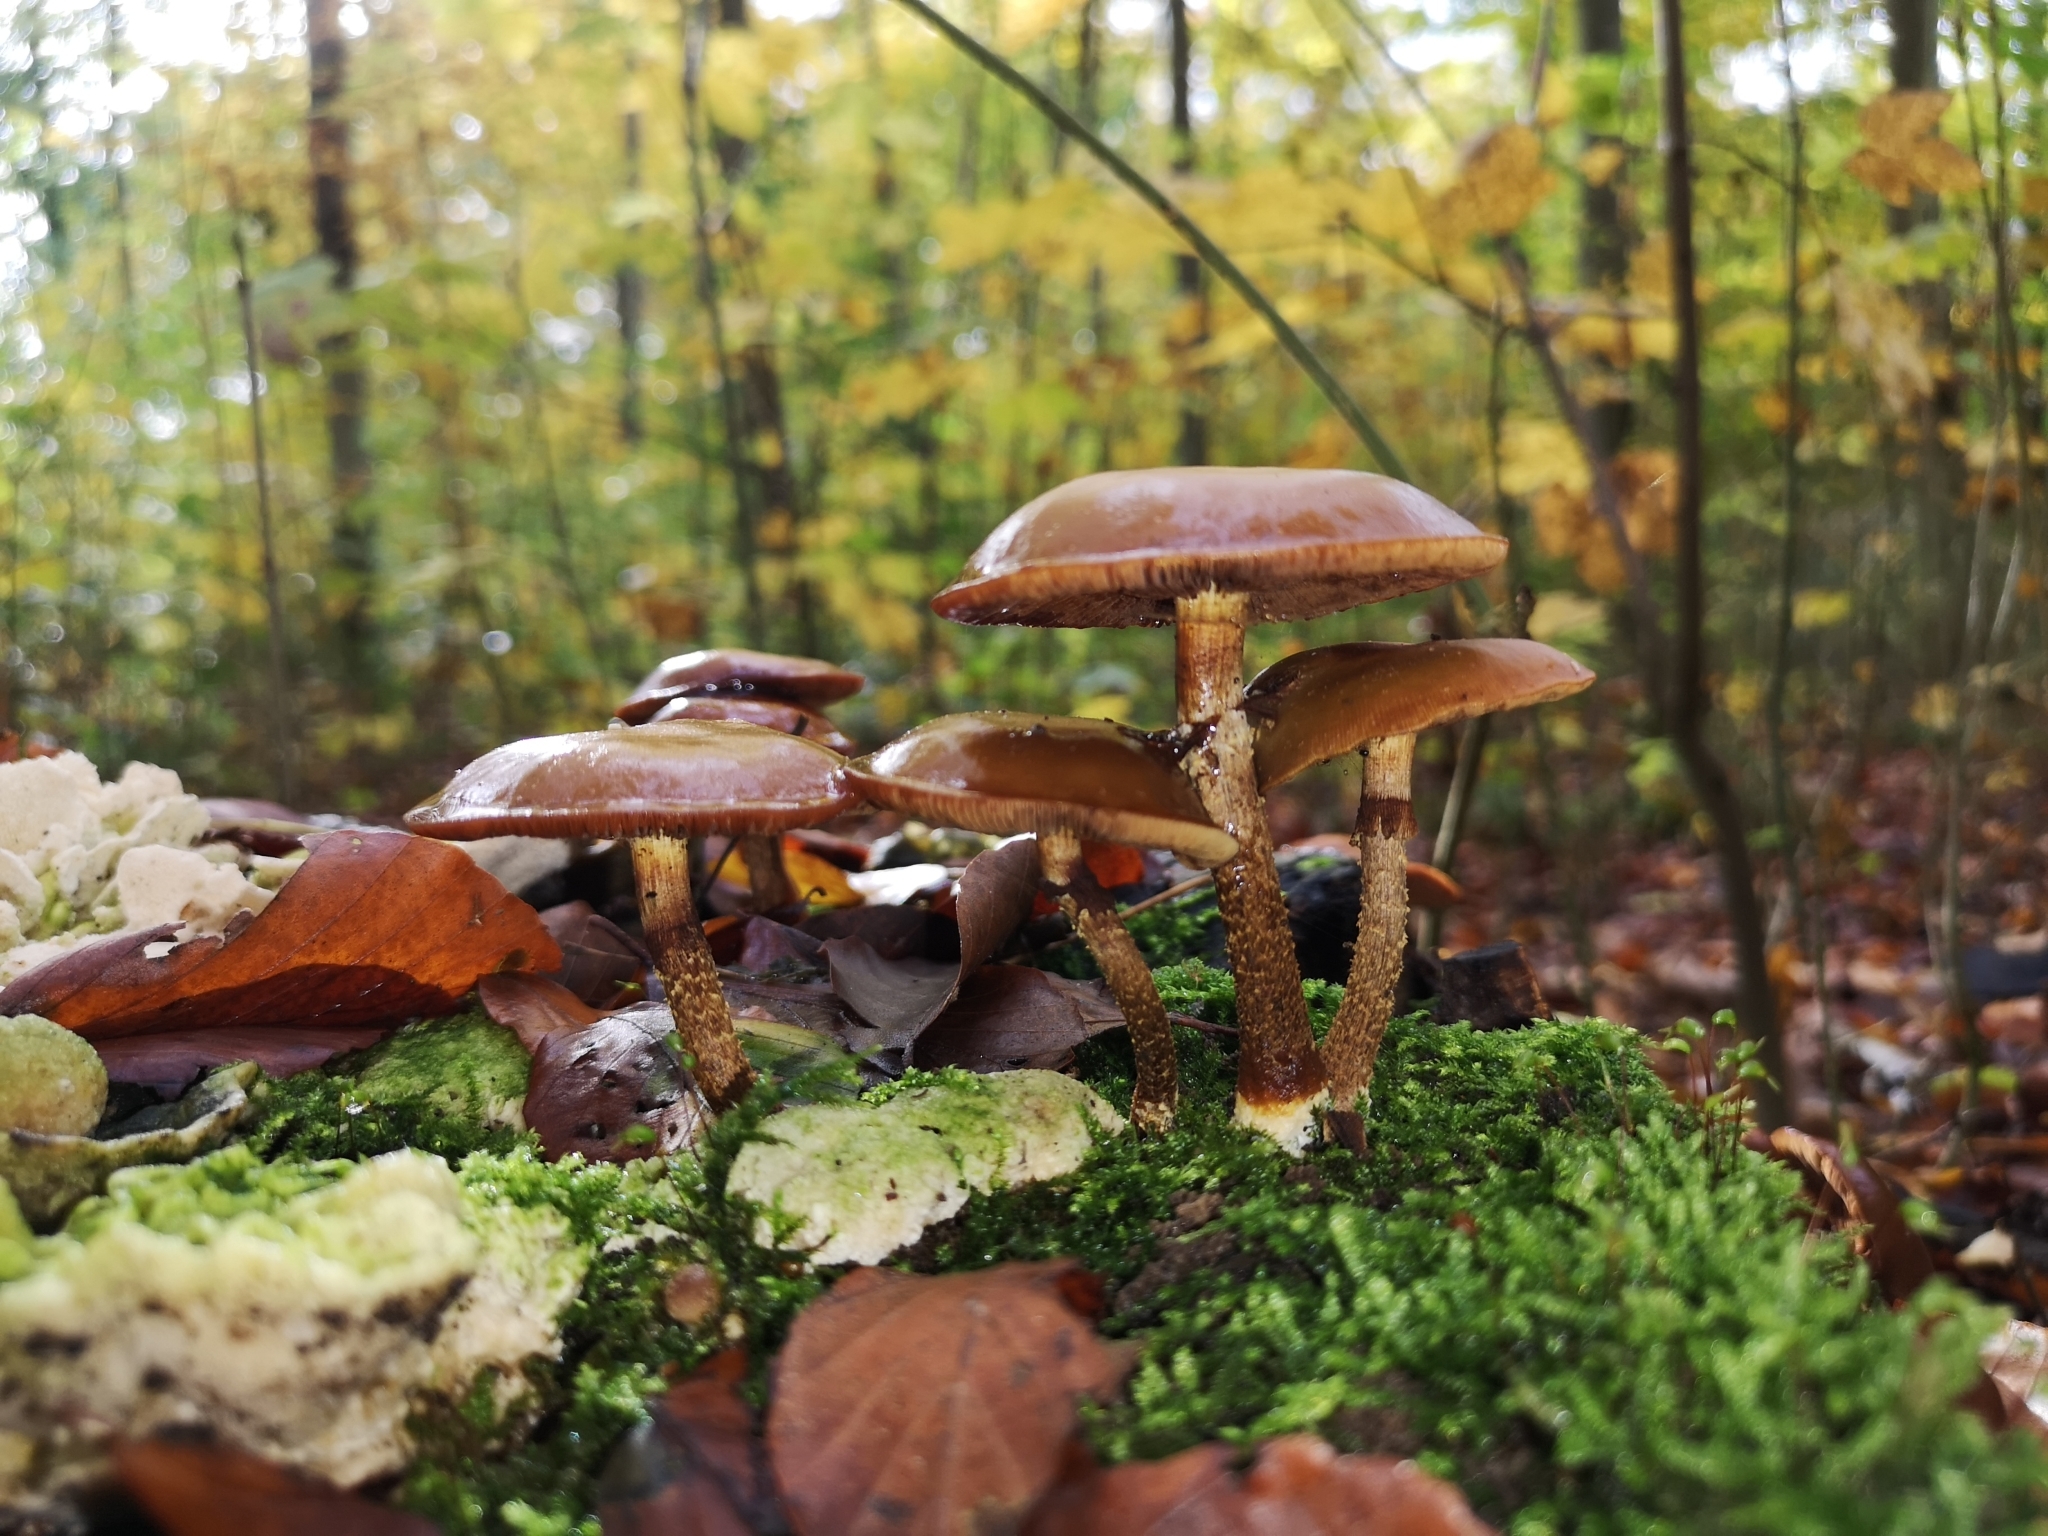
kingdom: Fungi
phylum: Basidiomycota
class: Agaricomycetes
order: Agaricales
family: Strophariaceae
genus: Kuehneromyces
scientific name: Kuehneromyces mutabilis
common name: Sheathed woodtuft
